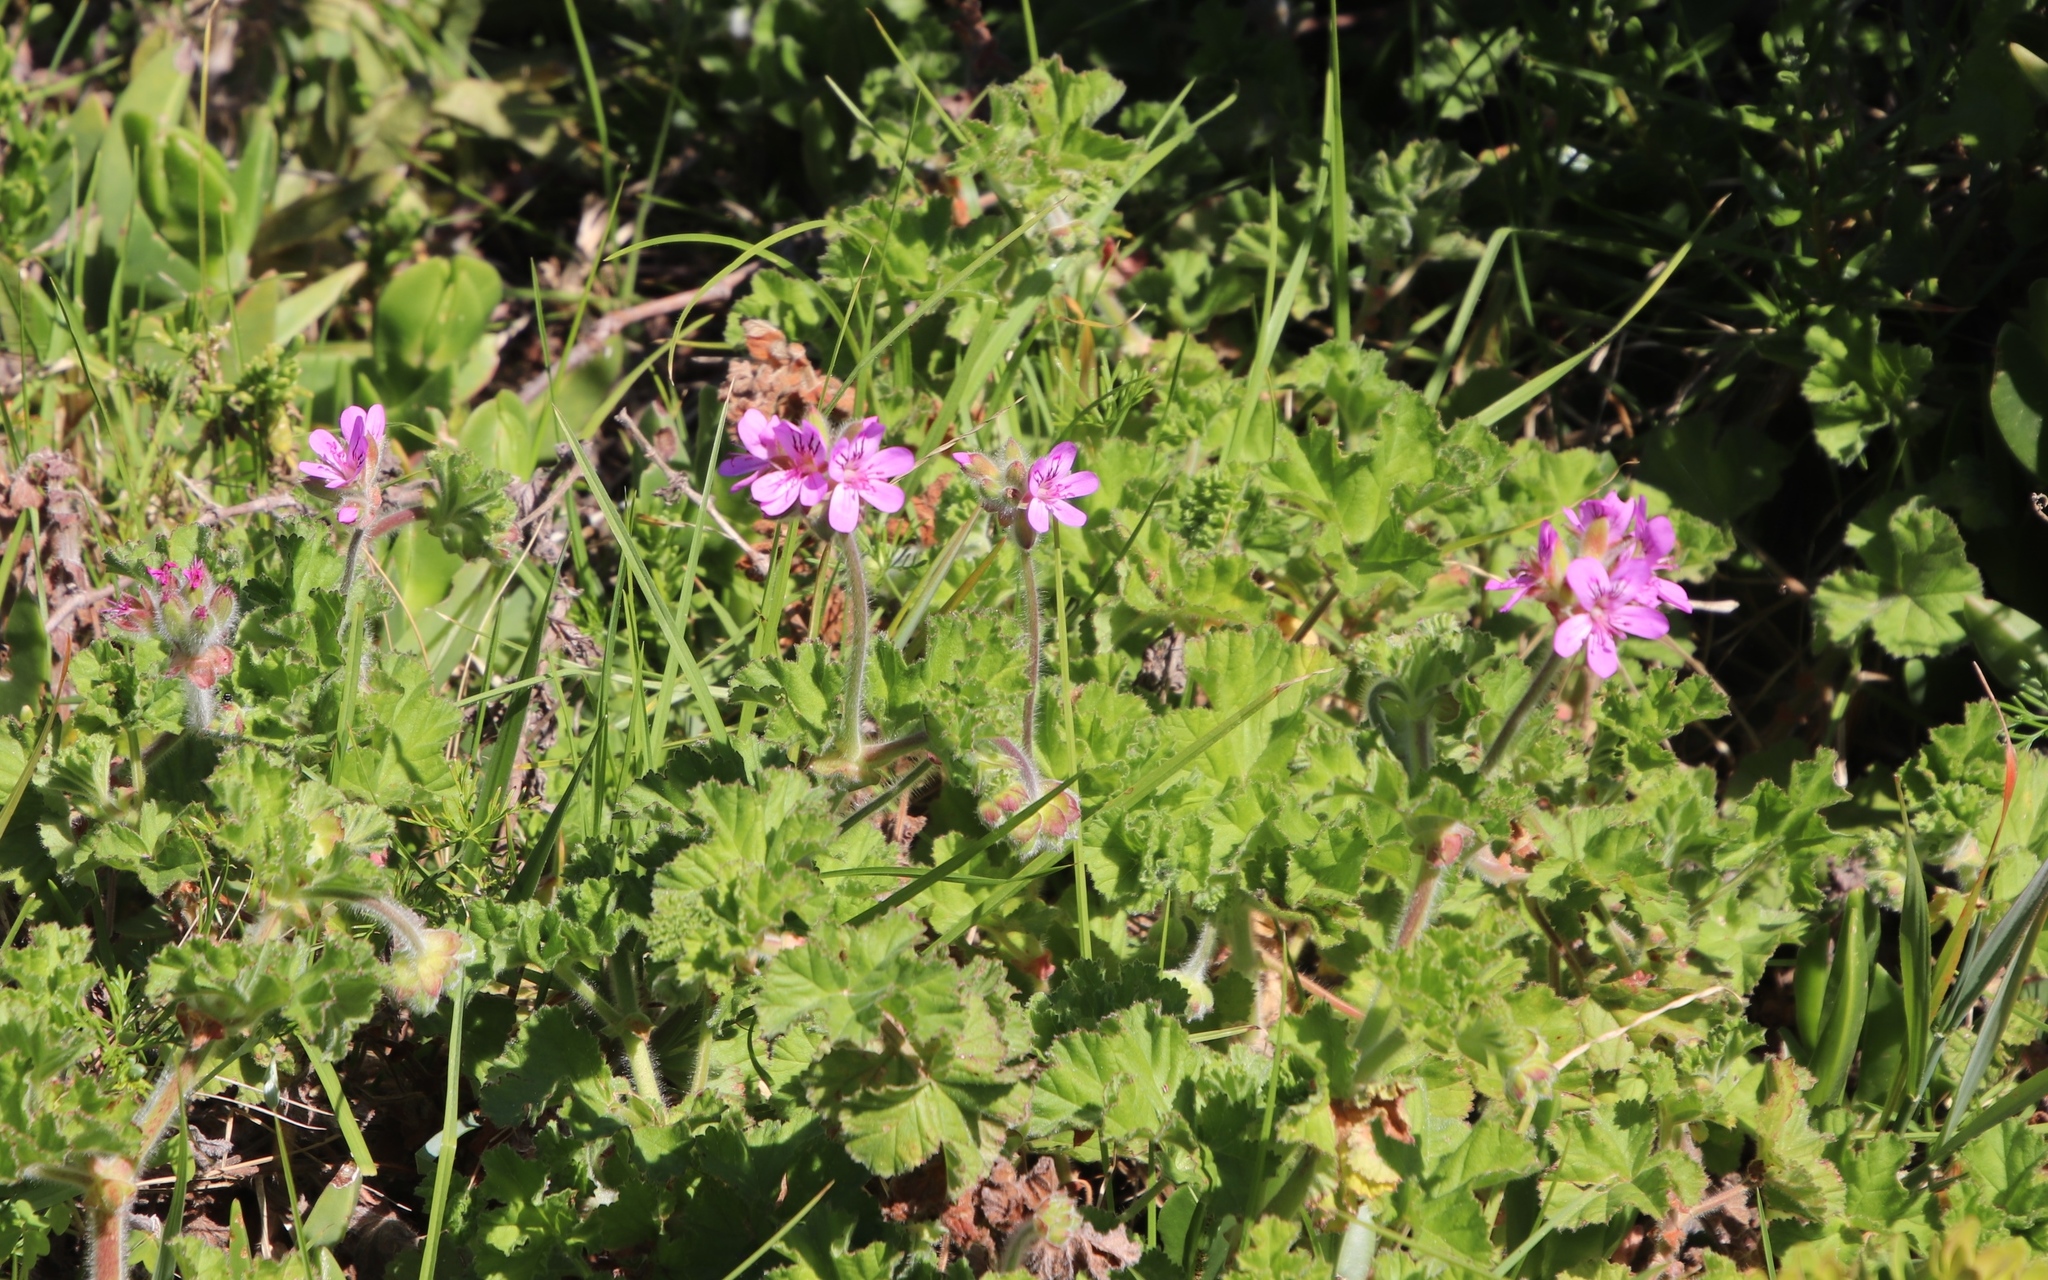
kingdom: Plantae
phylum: Tracheophyta
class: Magnoliopsida
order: Geraniales
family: Geraniaceae
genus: Pelargonium
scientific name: Pelargonium capitatum
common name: Rose scented geranium
